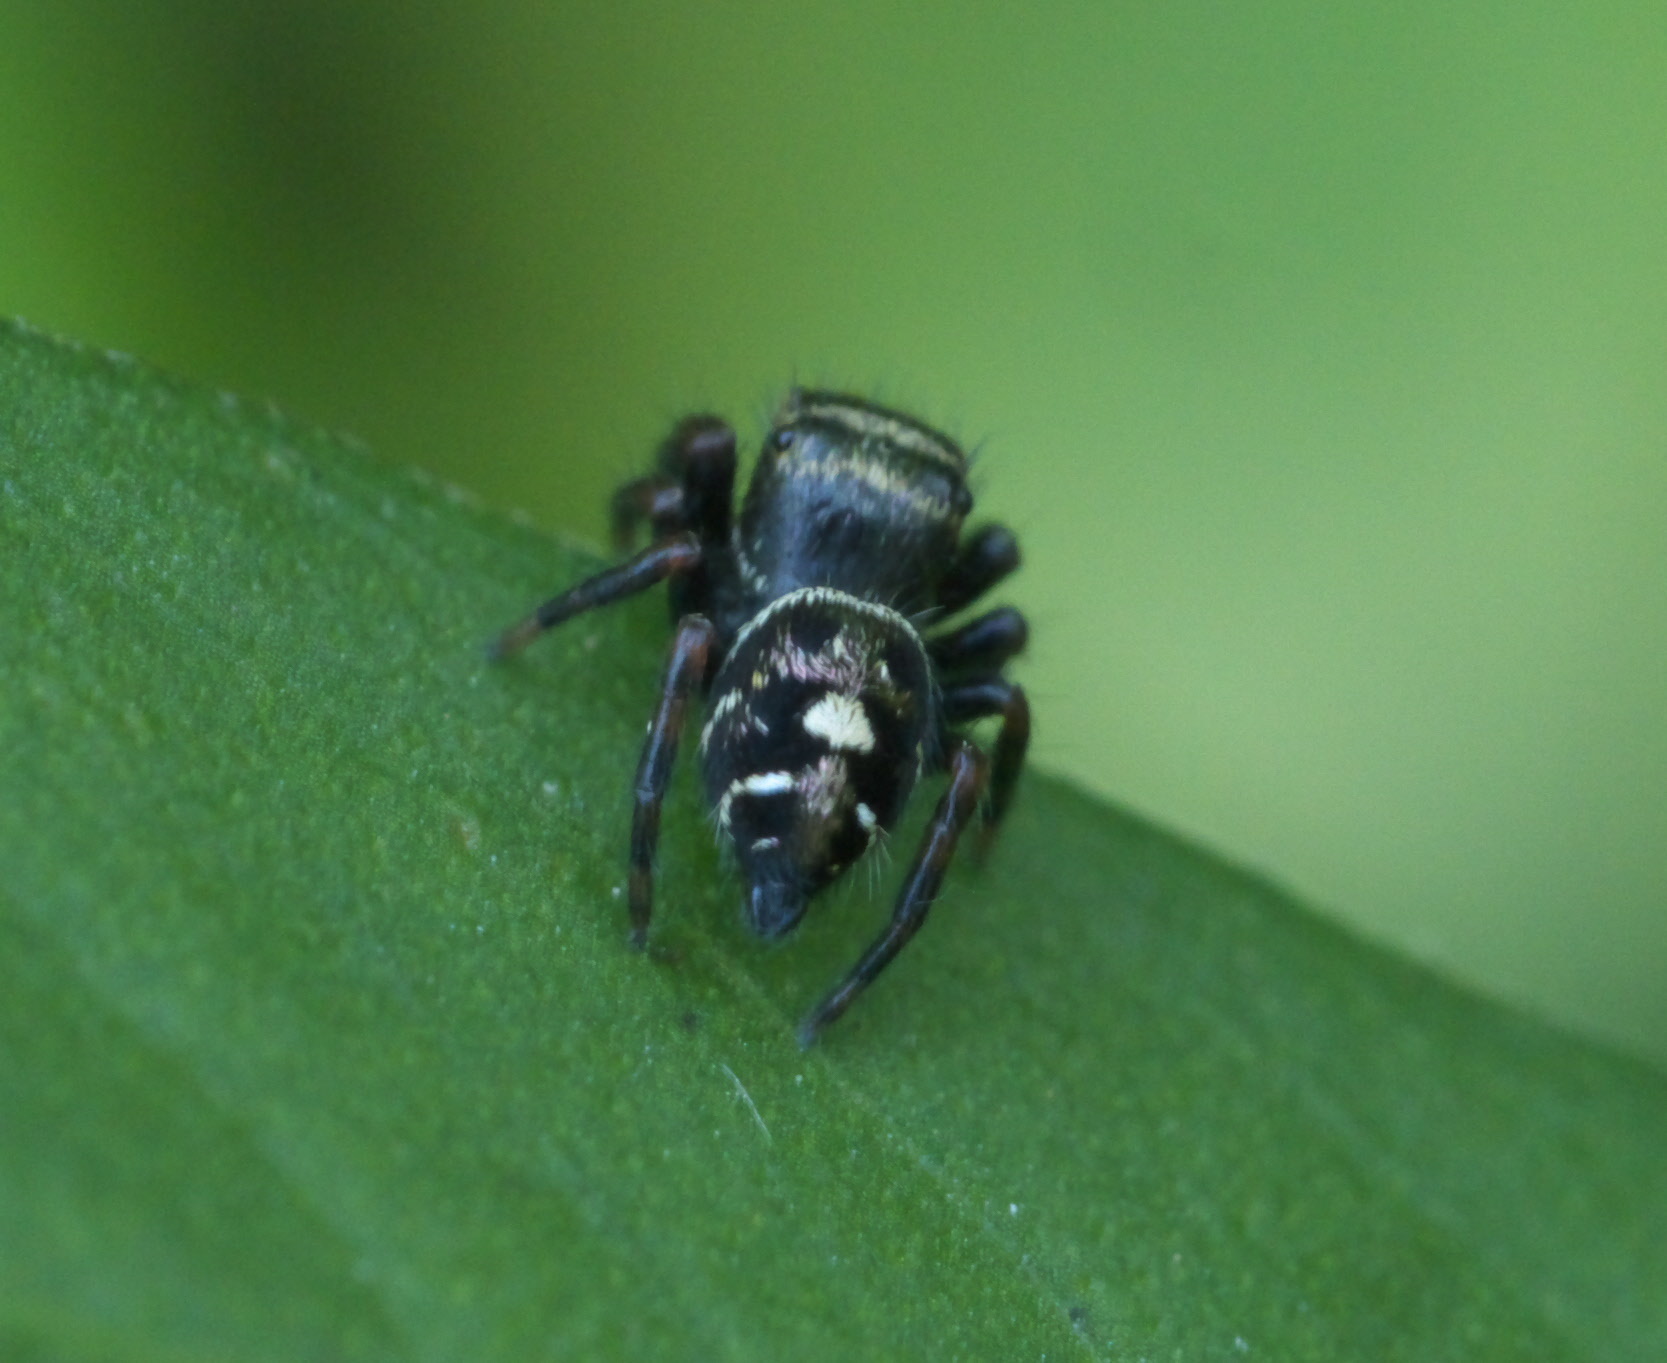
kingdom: Animalia
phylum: Arthropoda
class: Arachnida
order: Araneae
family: Salticidae
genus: Phidippus
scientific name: Phidippus audax
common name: Bold jumper
